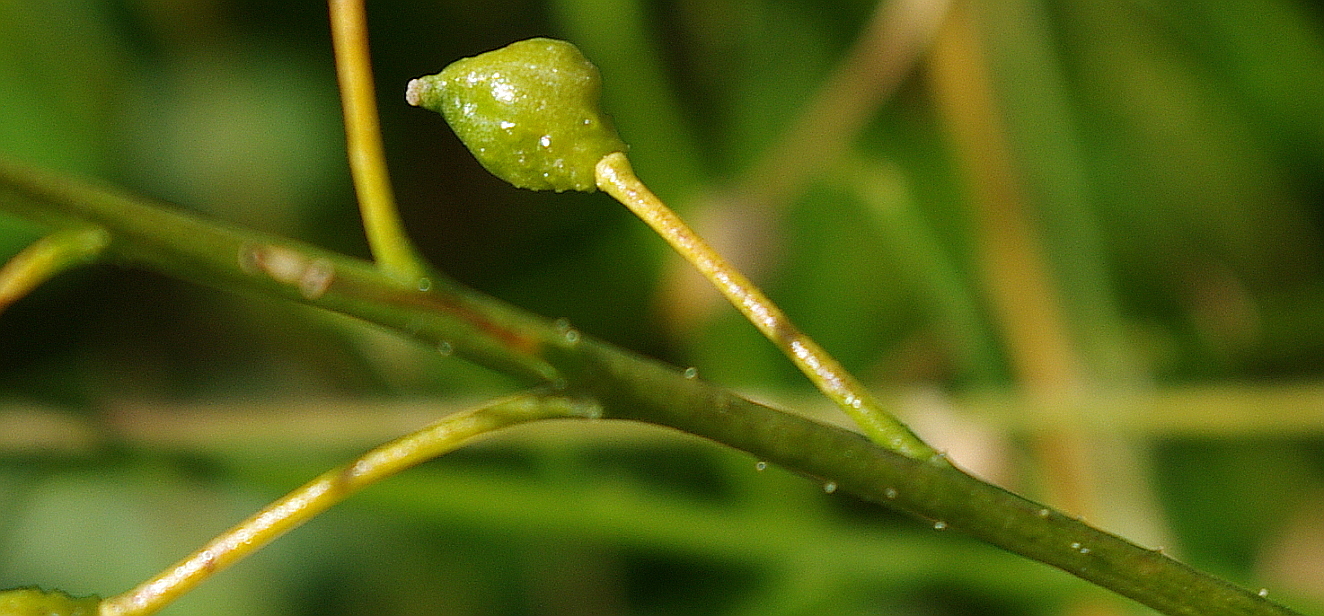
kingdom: Plantae
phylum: Tracheophyta
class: Magnoliopsida
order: Brassicales
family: Brassicaceae
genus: Bunias
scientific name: Bunias orientalis
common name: Warty-cabbage
